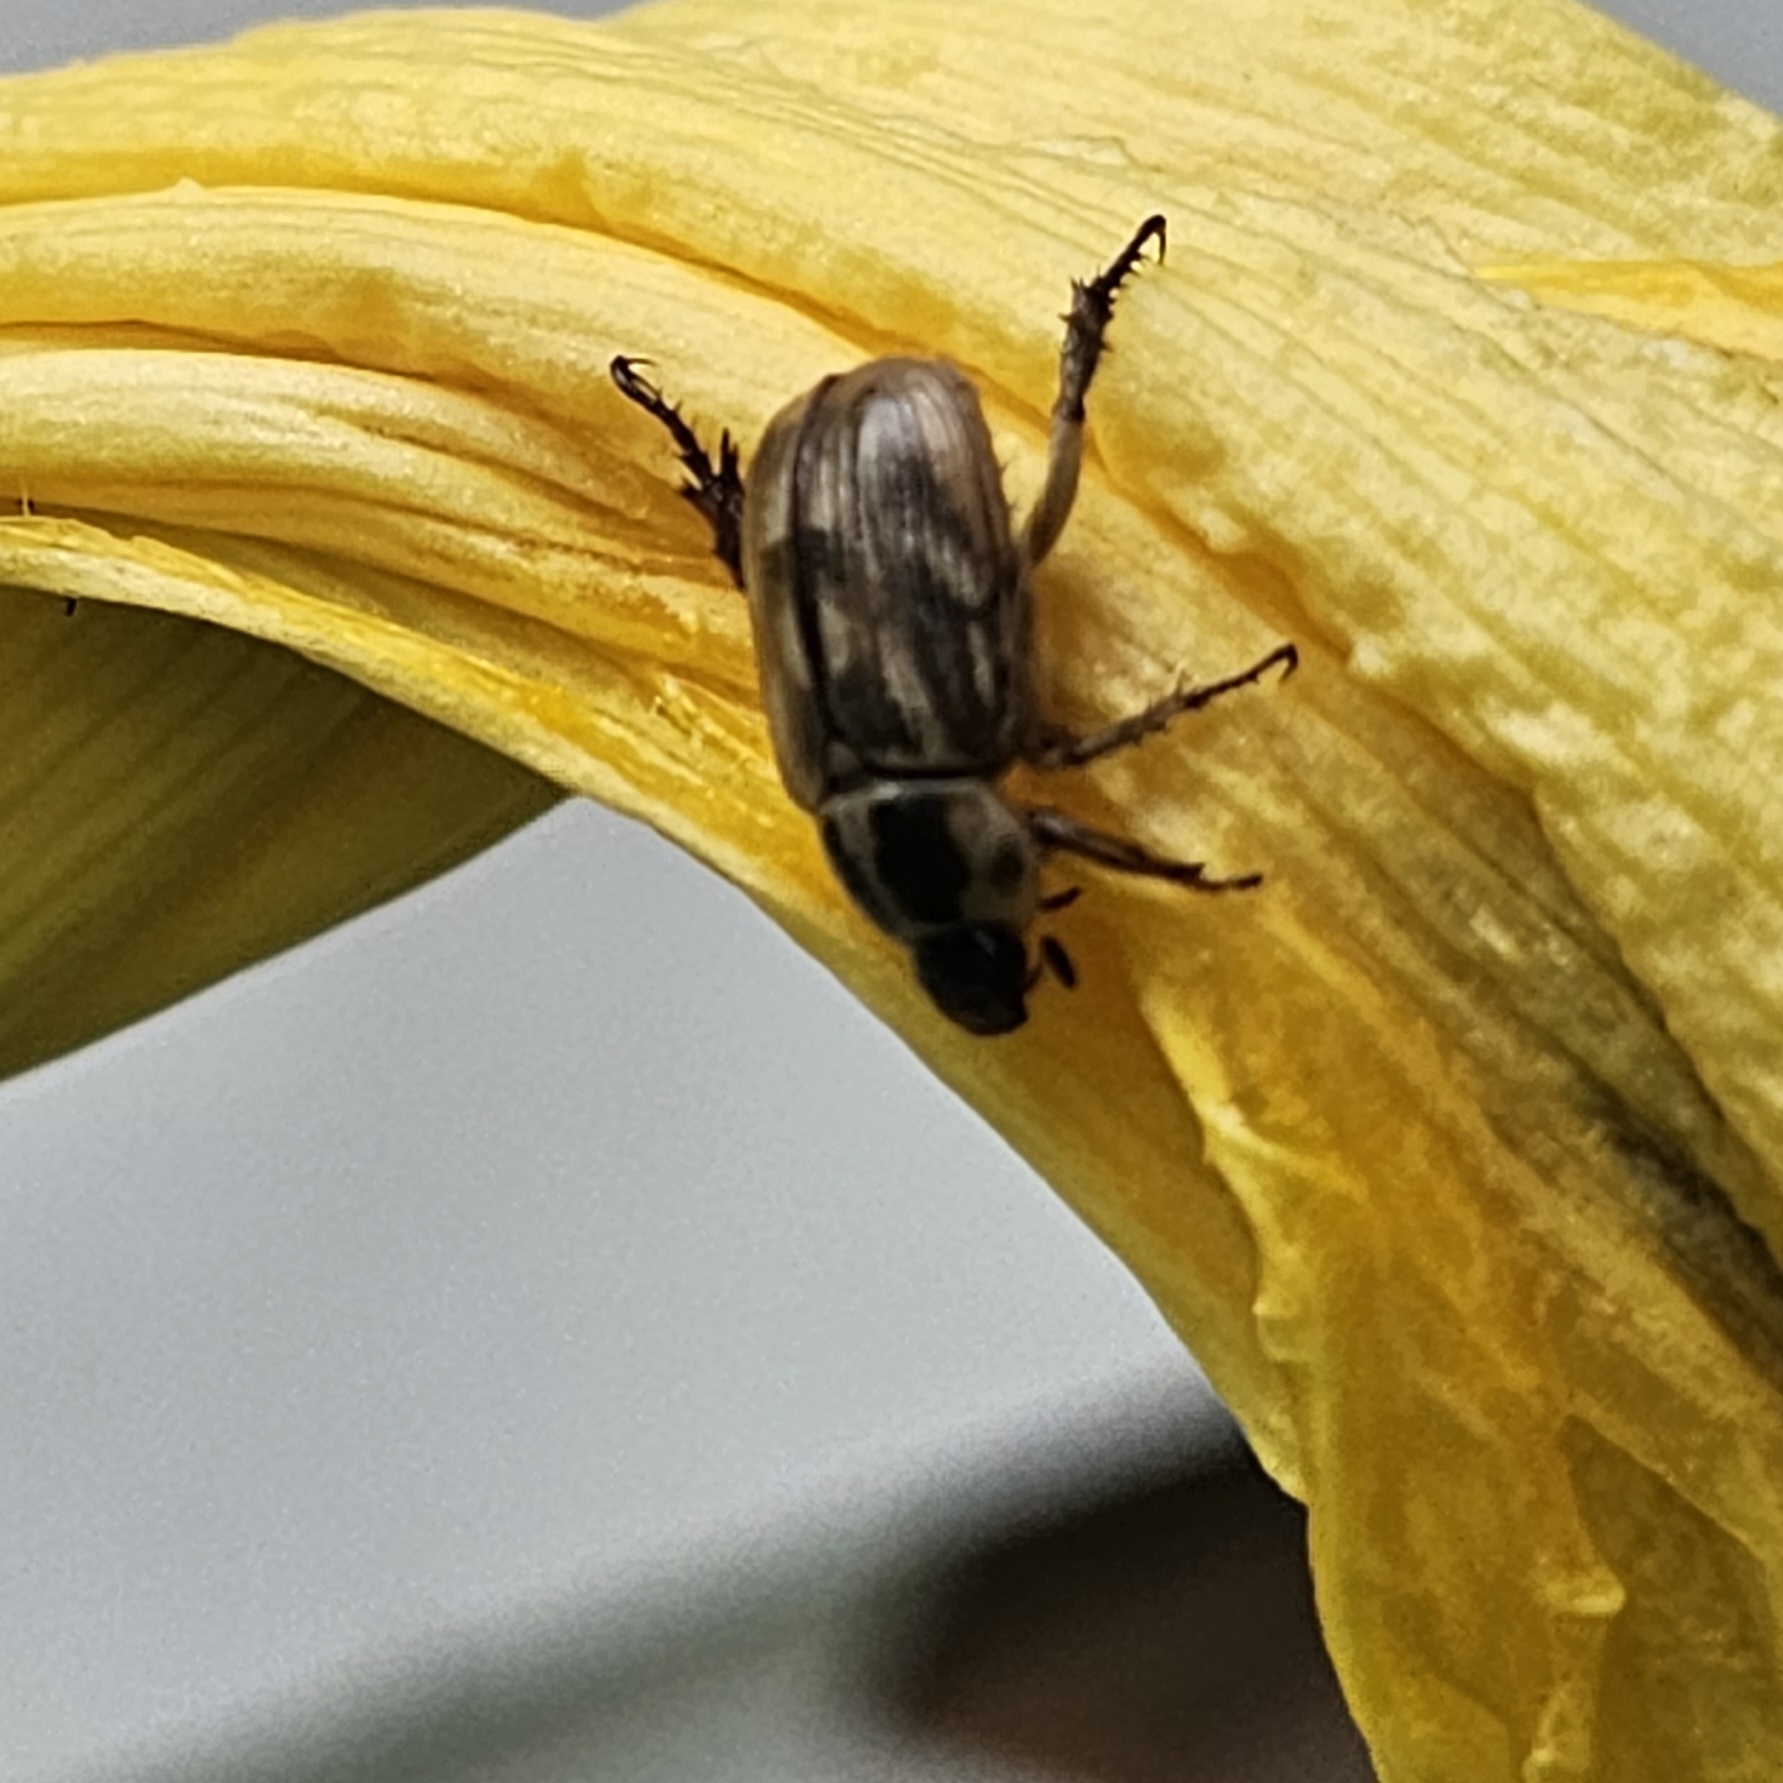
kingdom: Animalia
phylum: Arthropoda
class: Insecta
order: Coleoptera
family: Scarabaeidae
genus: Exomala
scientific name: Exomala orientalis
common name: Oriental beetle
